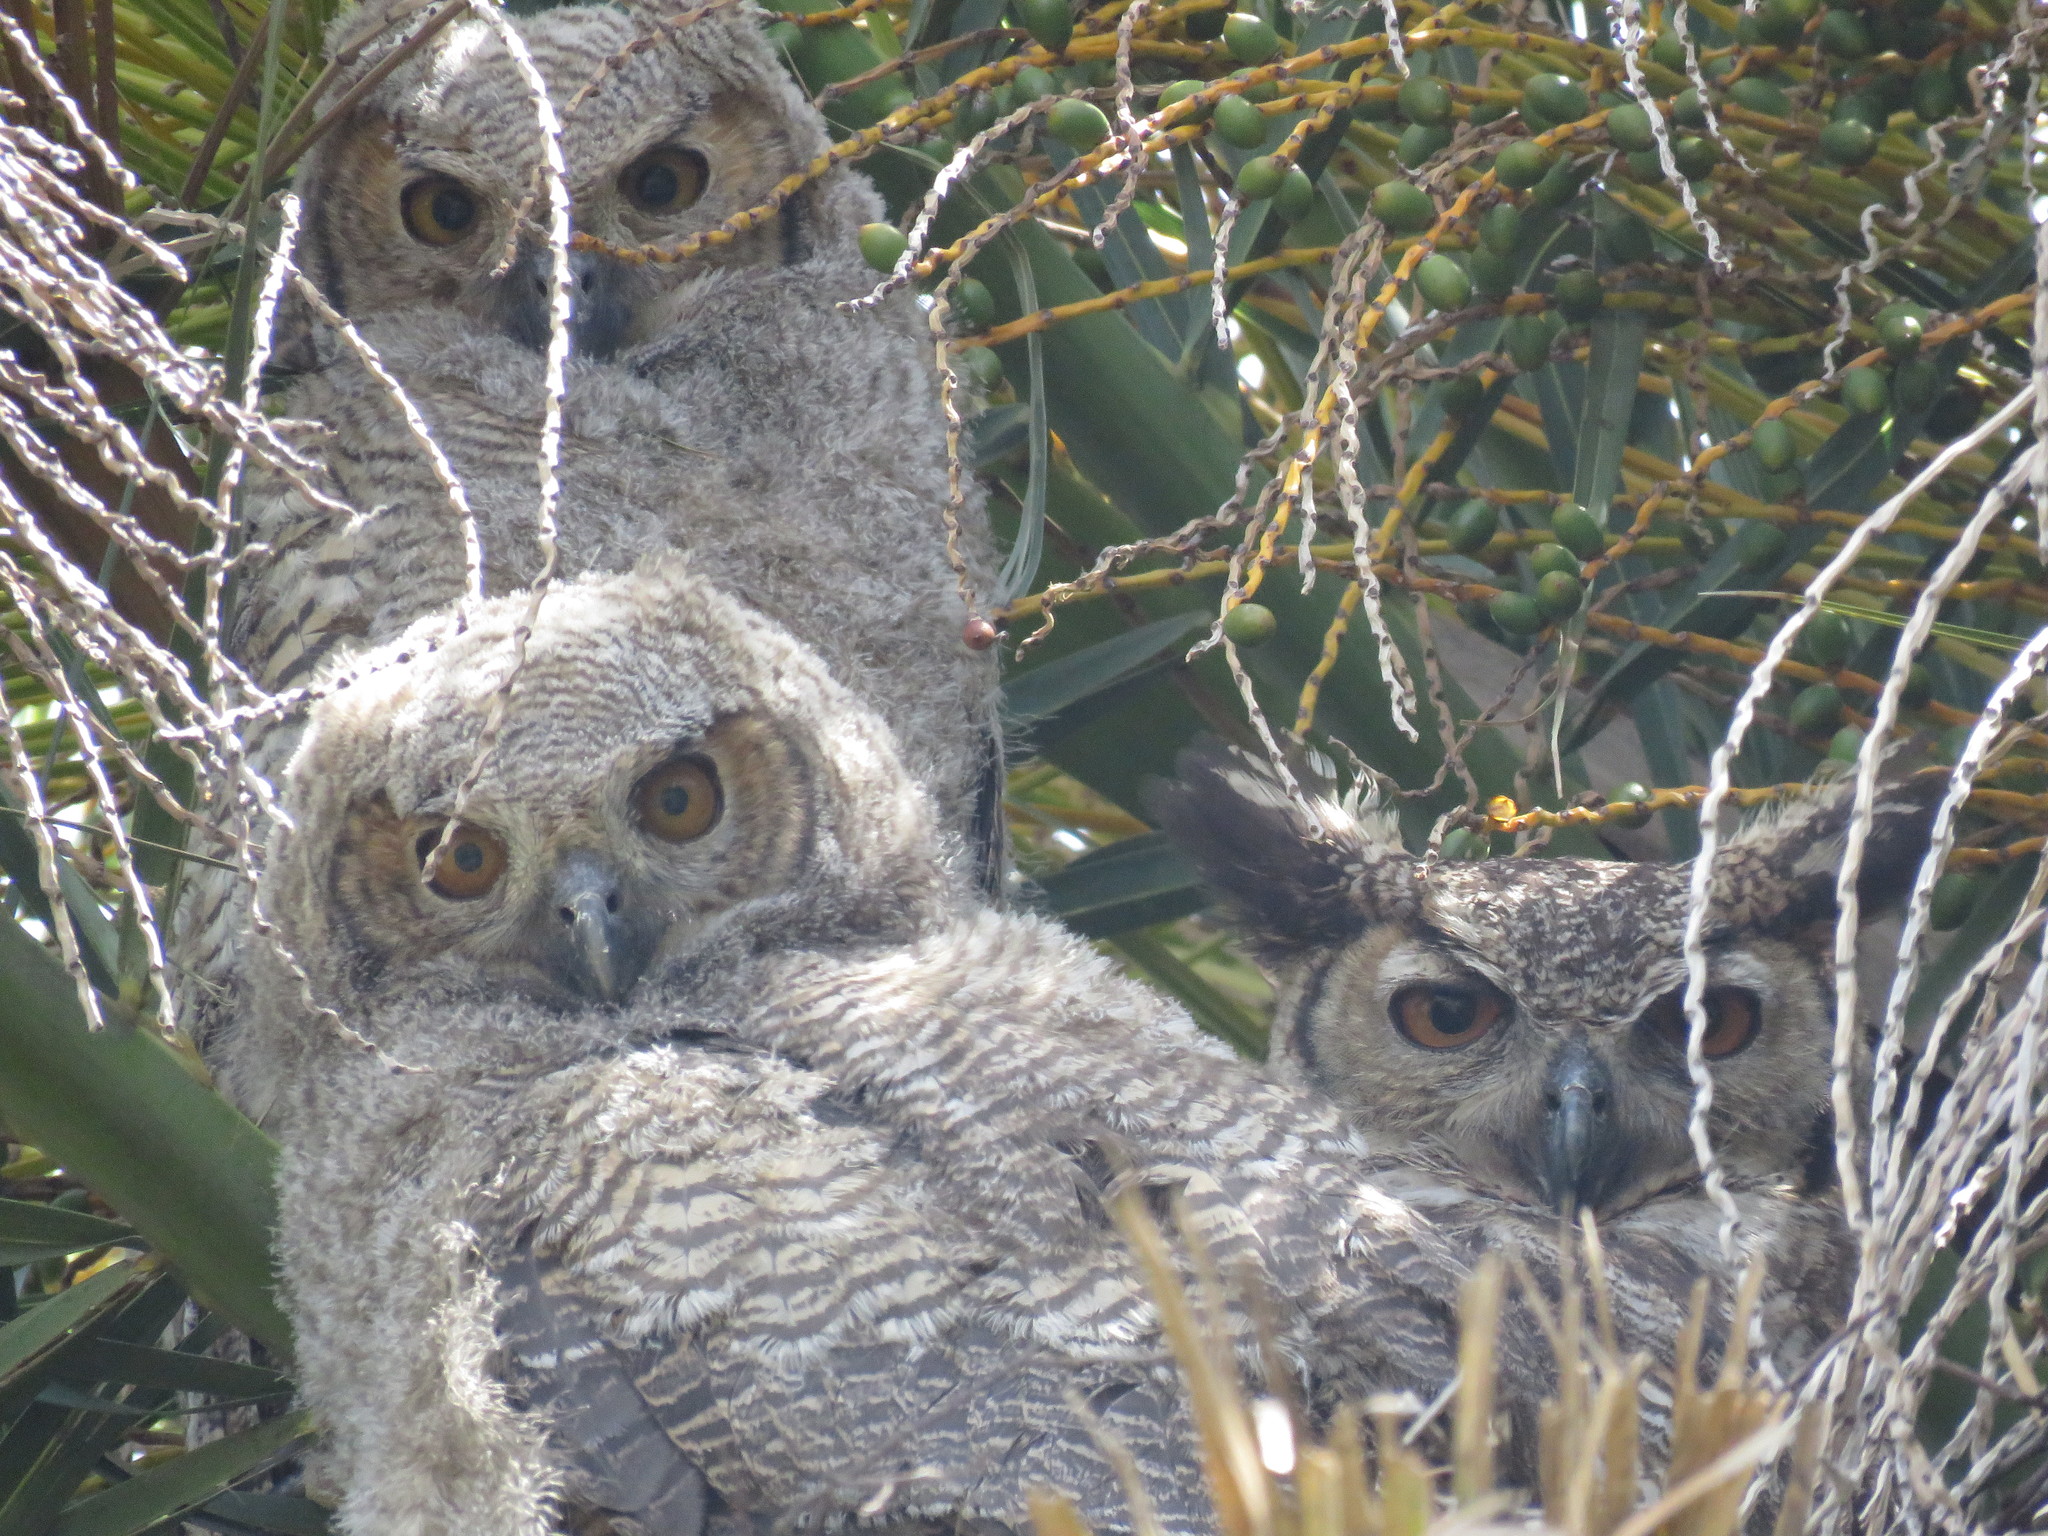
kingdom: Animalia
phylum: Chordata
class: Aves
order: Strigiformes
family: Strigidae
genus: Bubo
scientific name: Bubo virginianus
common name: Great horned owl
